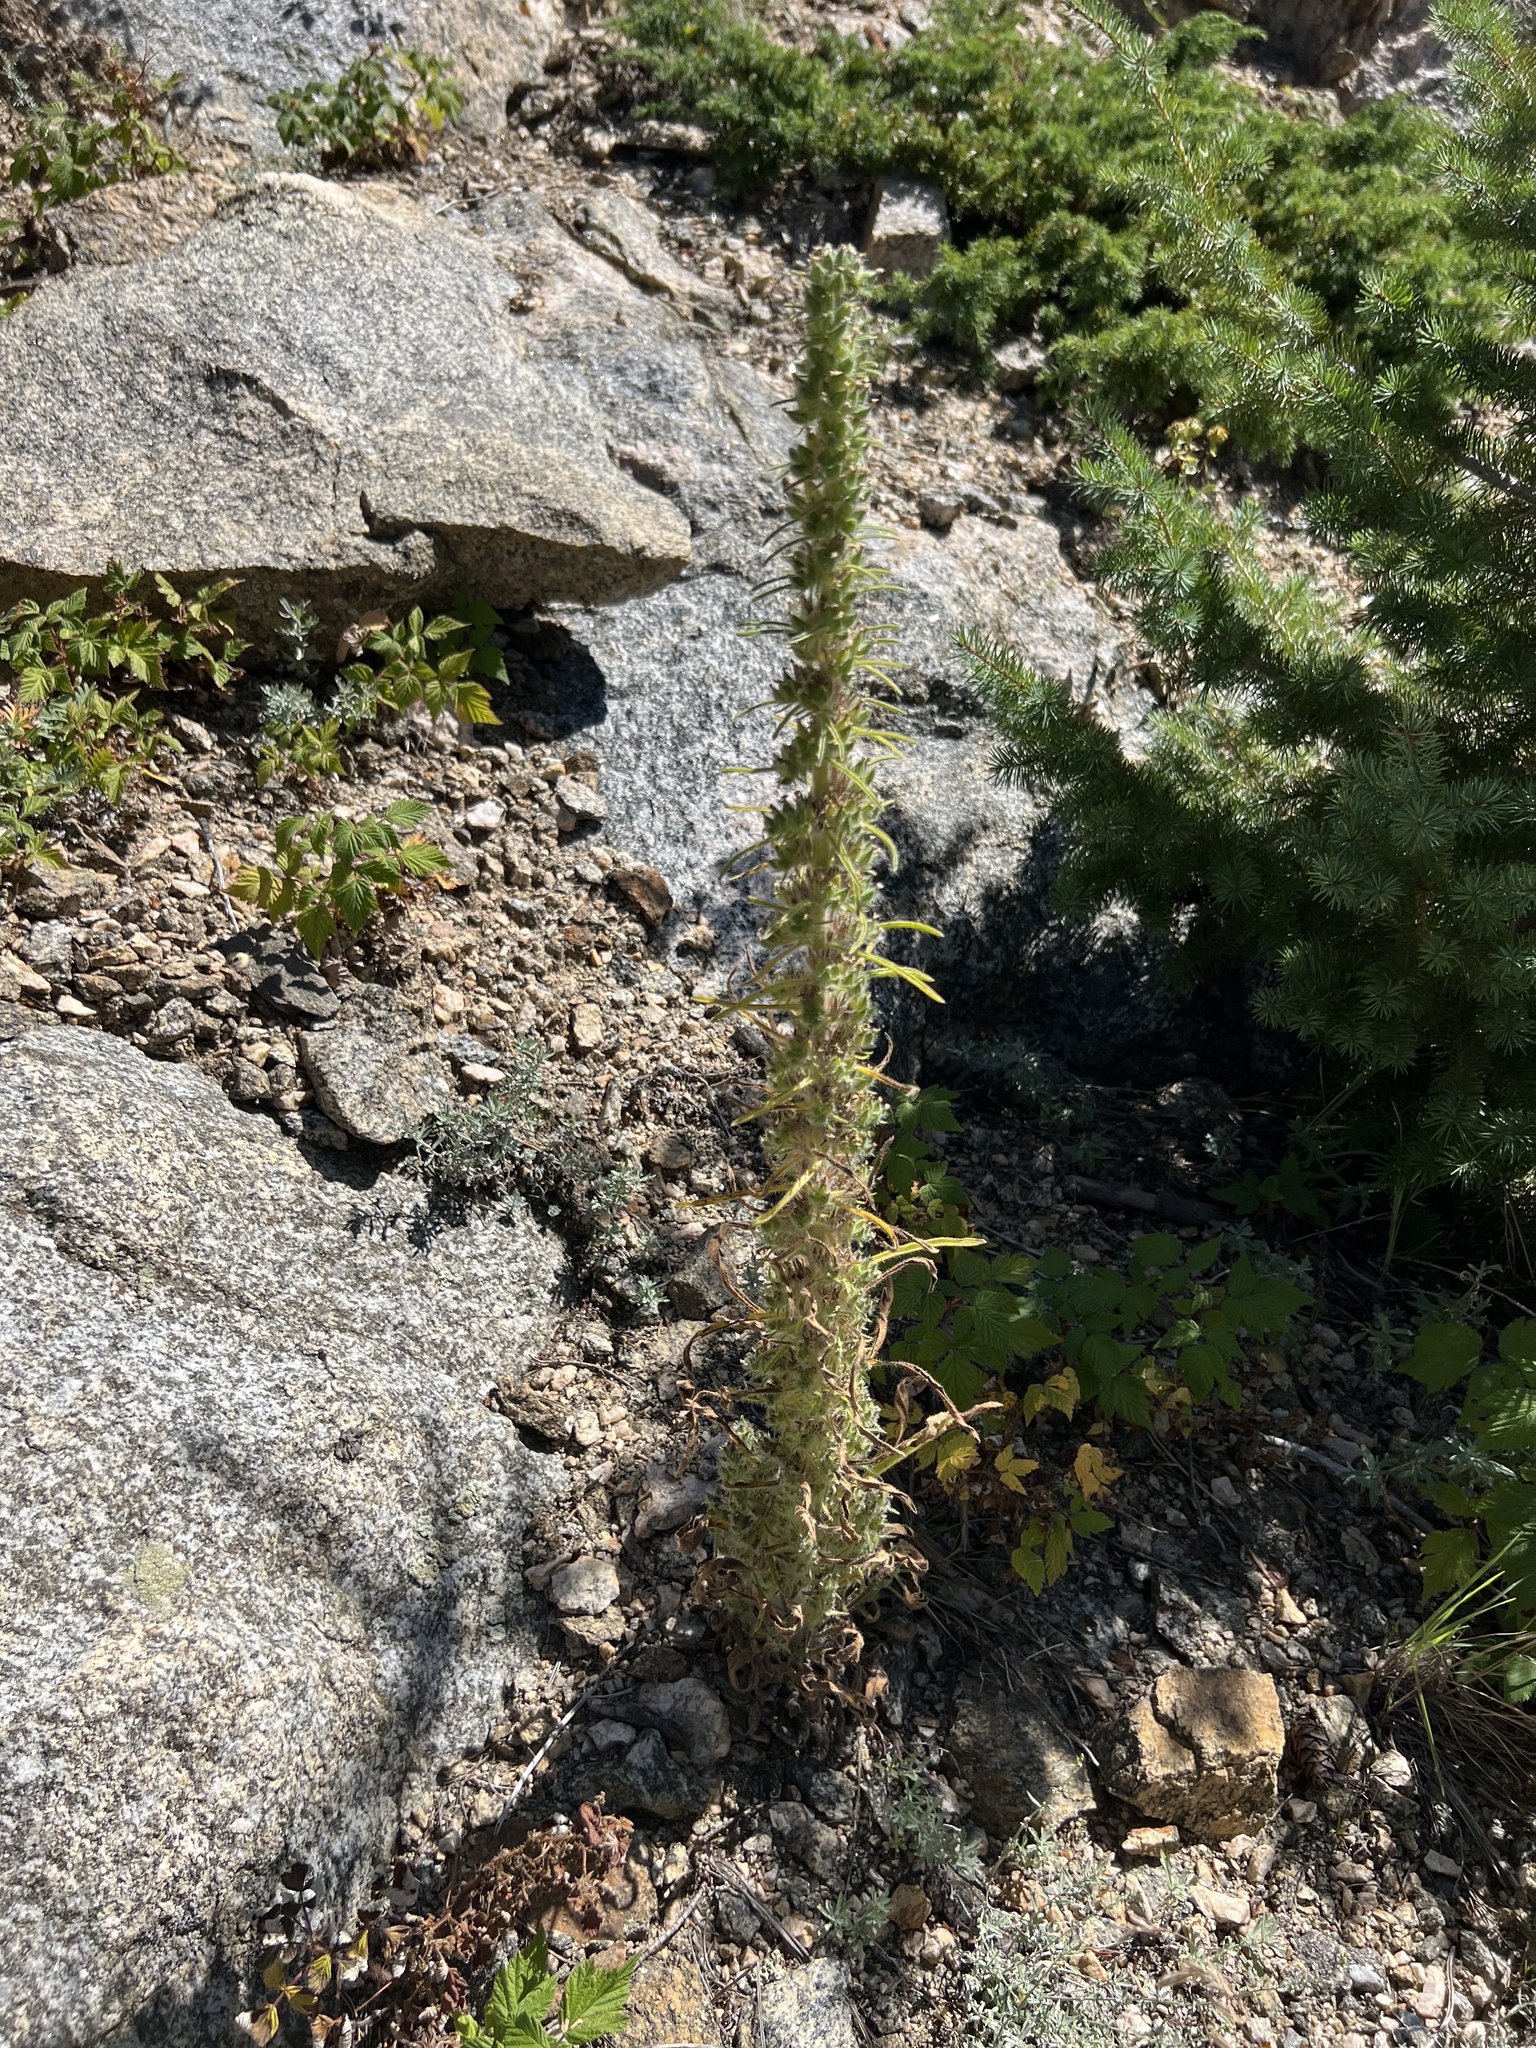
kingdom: Plantae
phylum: Tracheophyta
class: Magnoliopsida
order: Boraginales
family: Boraginaceae
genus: Oreocarya
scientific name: Oreocarya virgata
